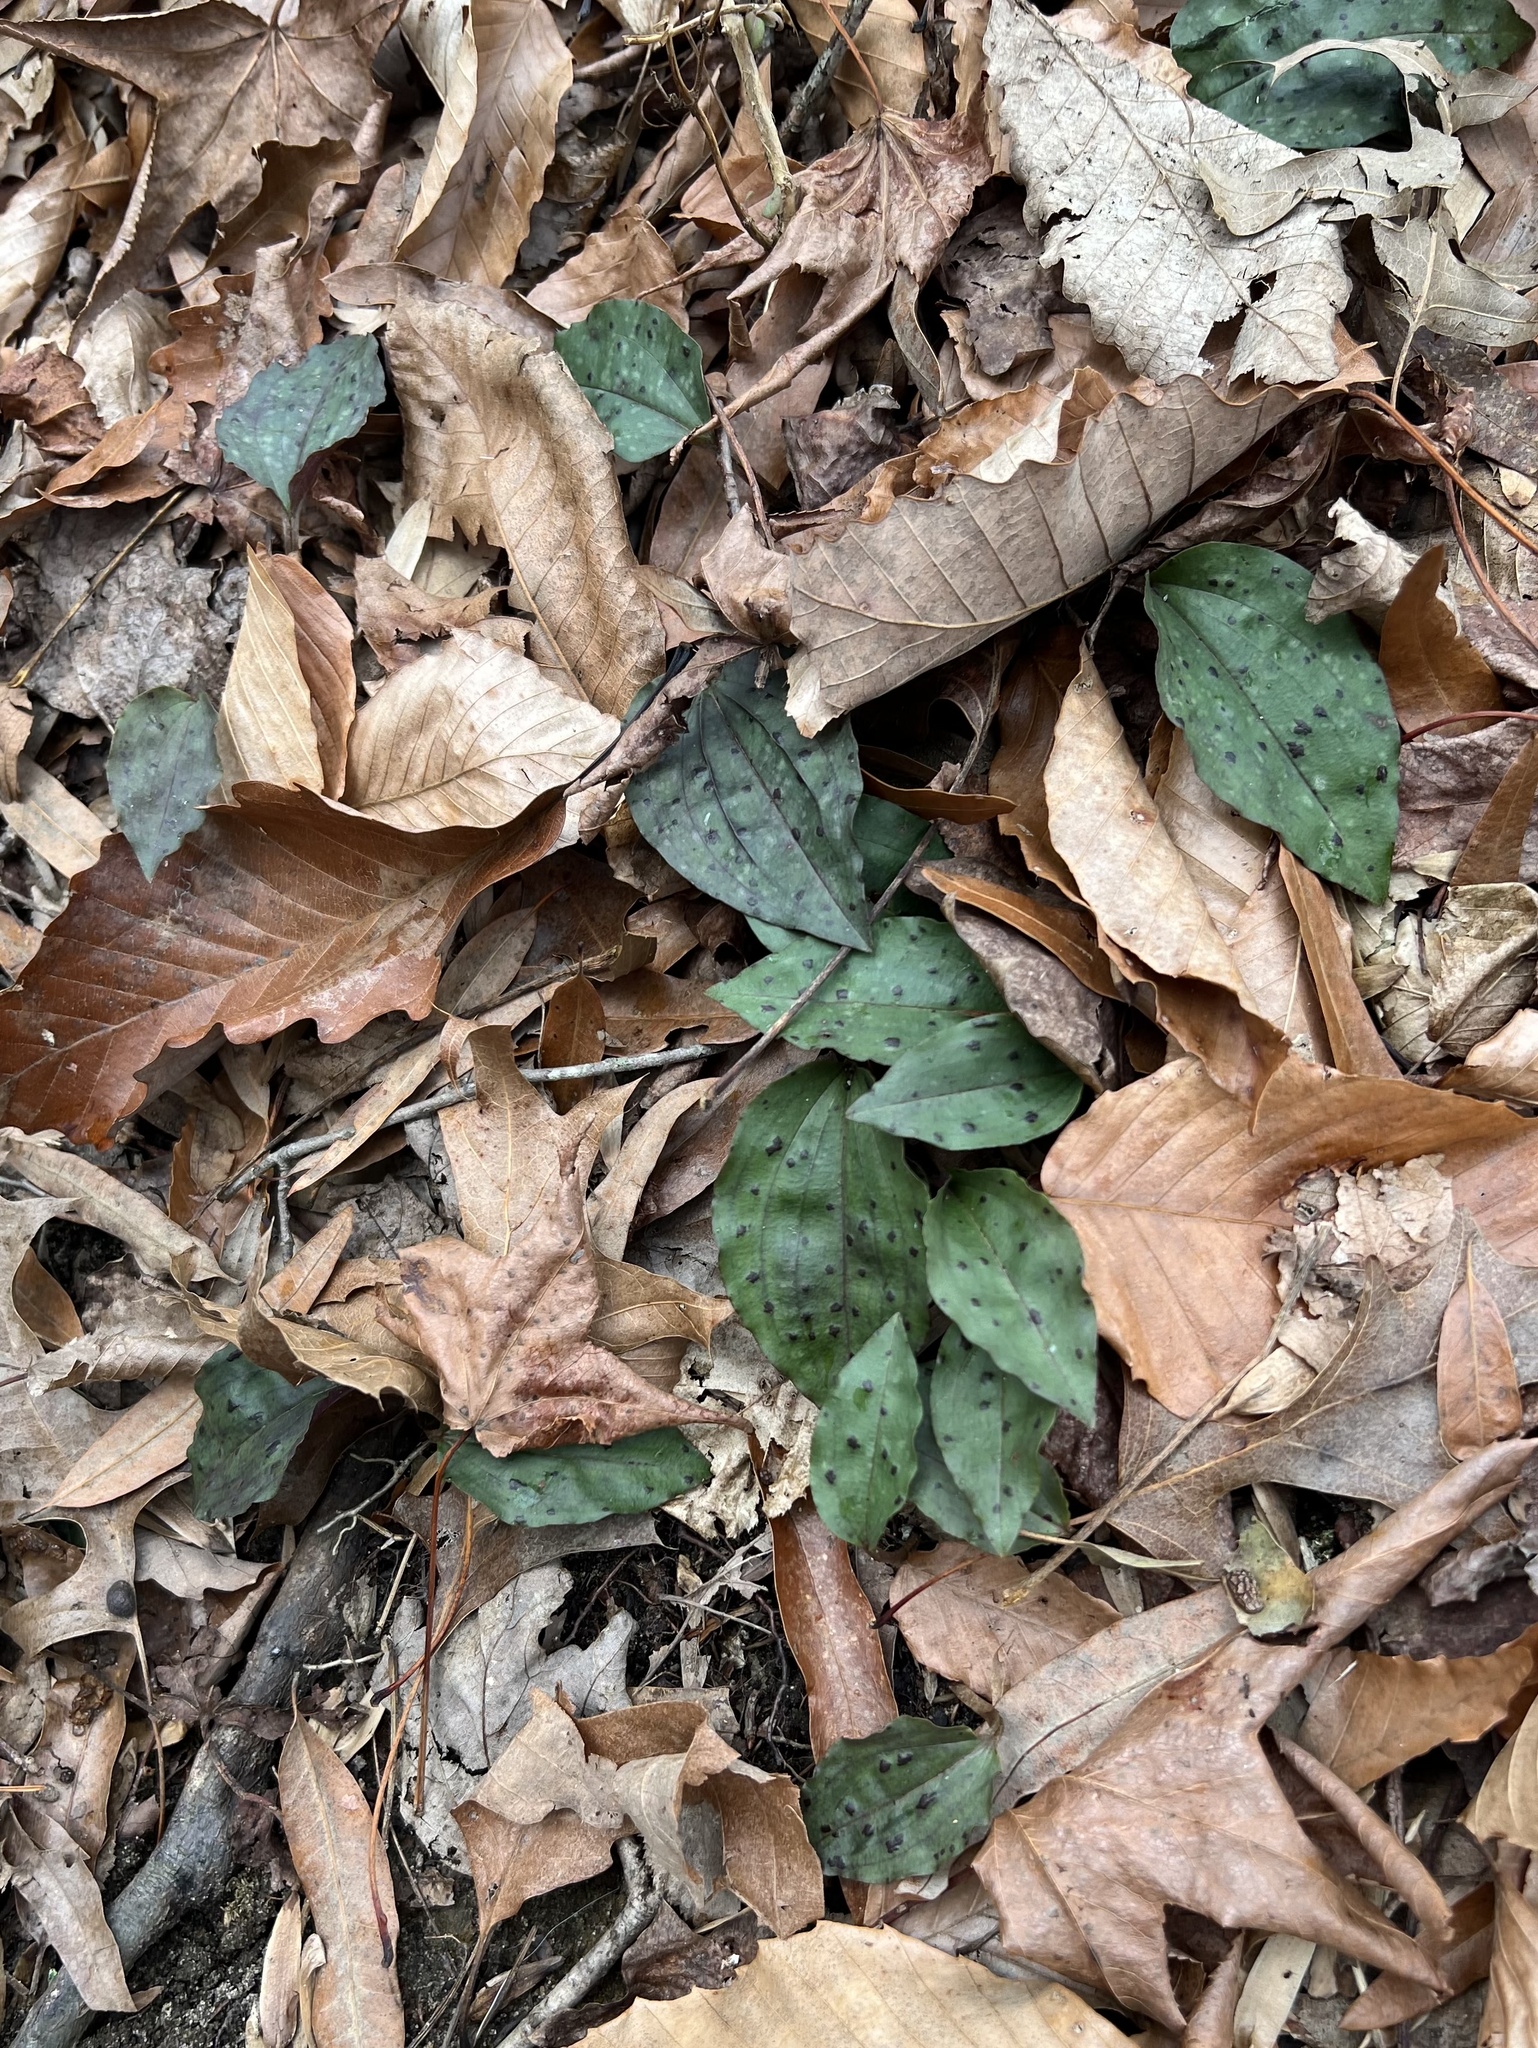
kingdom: Plantae
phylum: Tracheophyta
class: Liliopsida
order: Asparagales
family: Orchidaceae
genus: Tipularia
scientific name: Tipularia discolor
